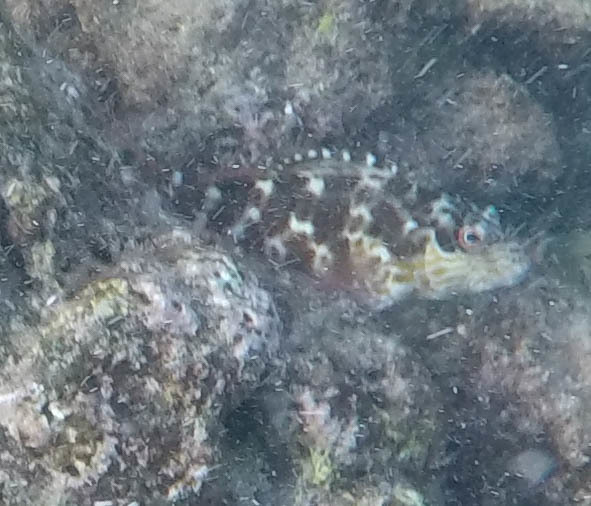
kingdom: Animalia
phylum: Chordata
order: Perciformes
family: Cirrhitidae
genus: Cirrhitus
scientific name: Cirrhitus pinnulatus
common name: Stocky hawkfish
